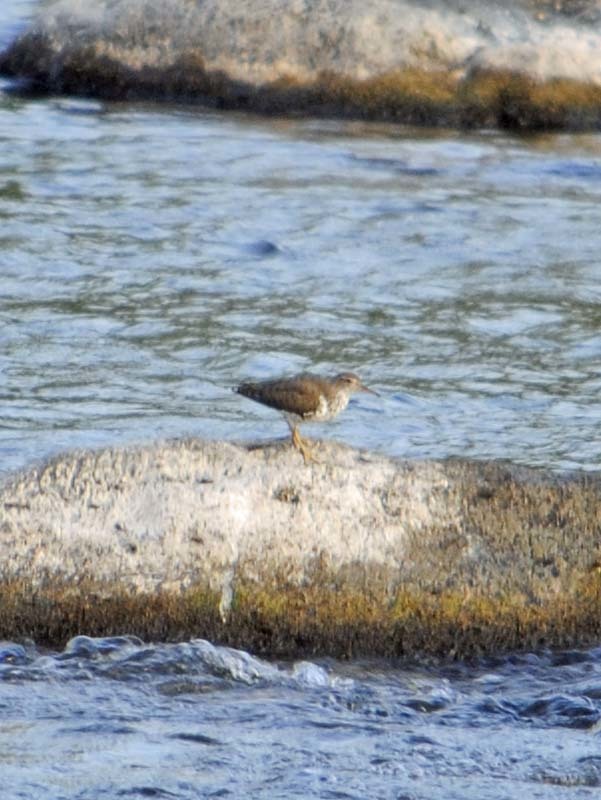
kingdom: Animalia
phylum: Chordata
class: Aves
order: Charadriiformes
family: Scolopacidae
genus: Actitis
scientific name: Actitis macularius
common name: Spotted sandpiper
